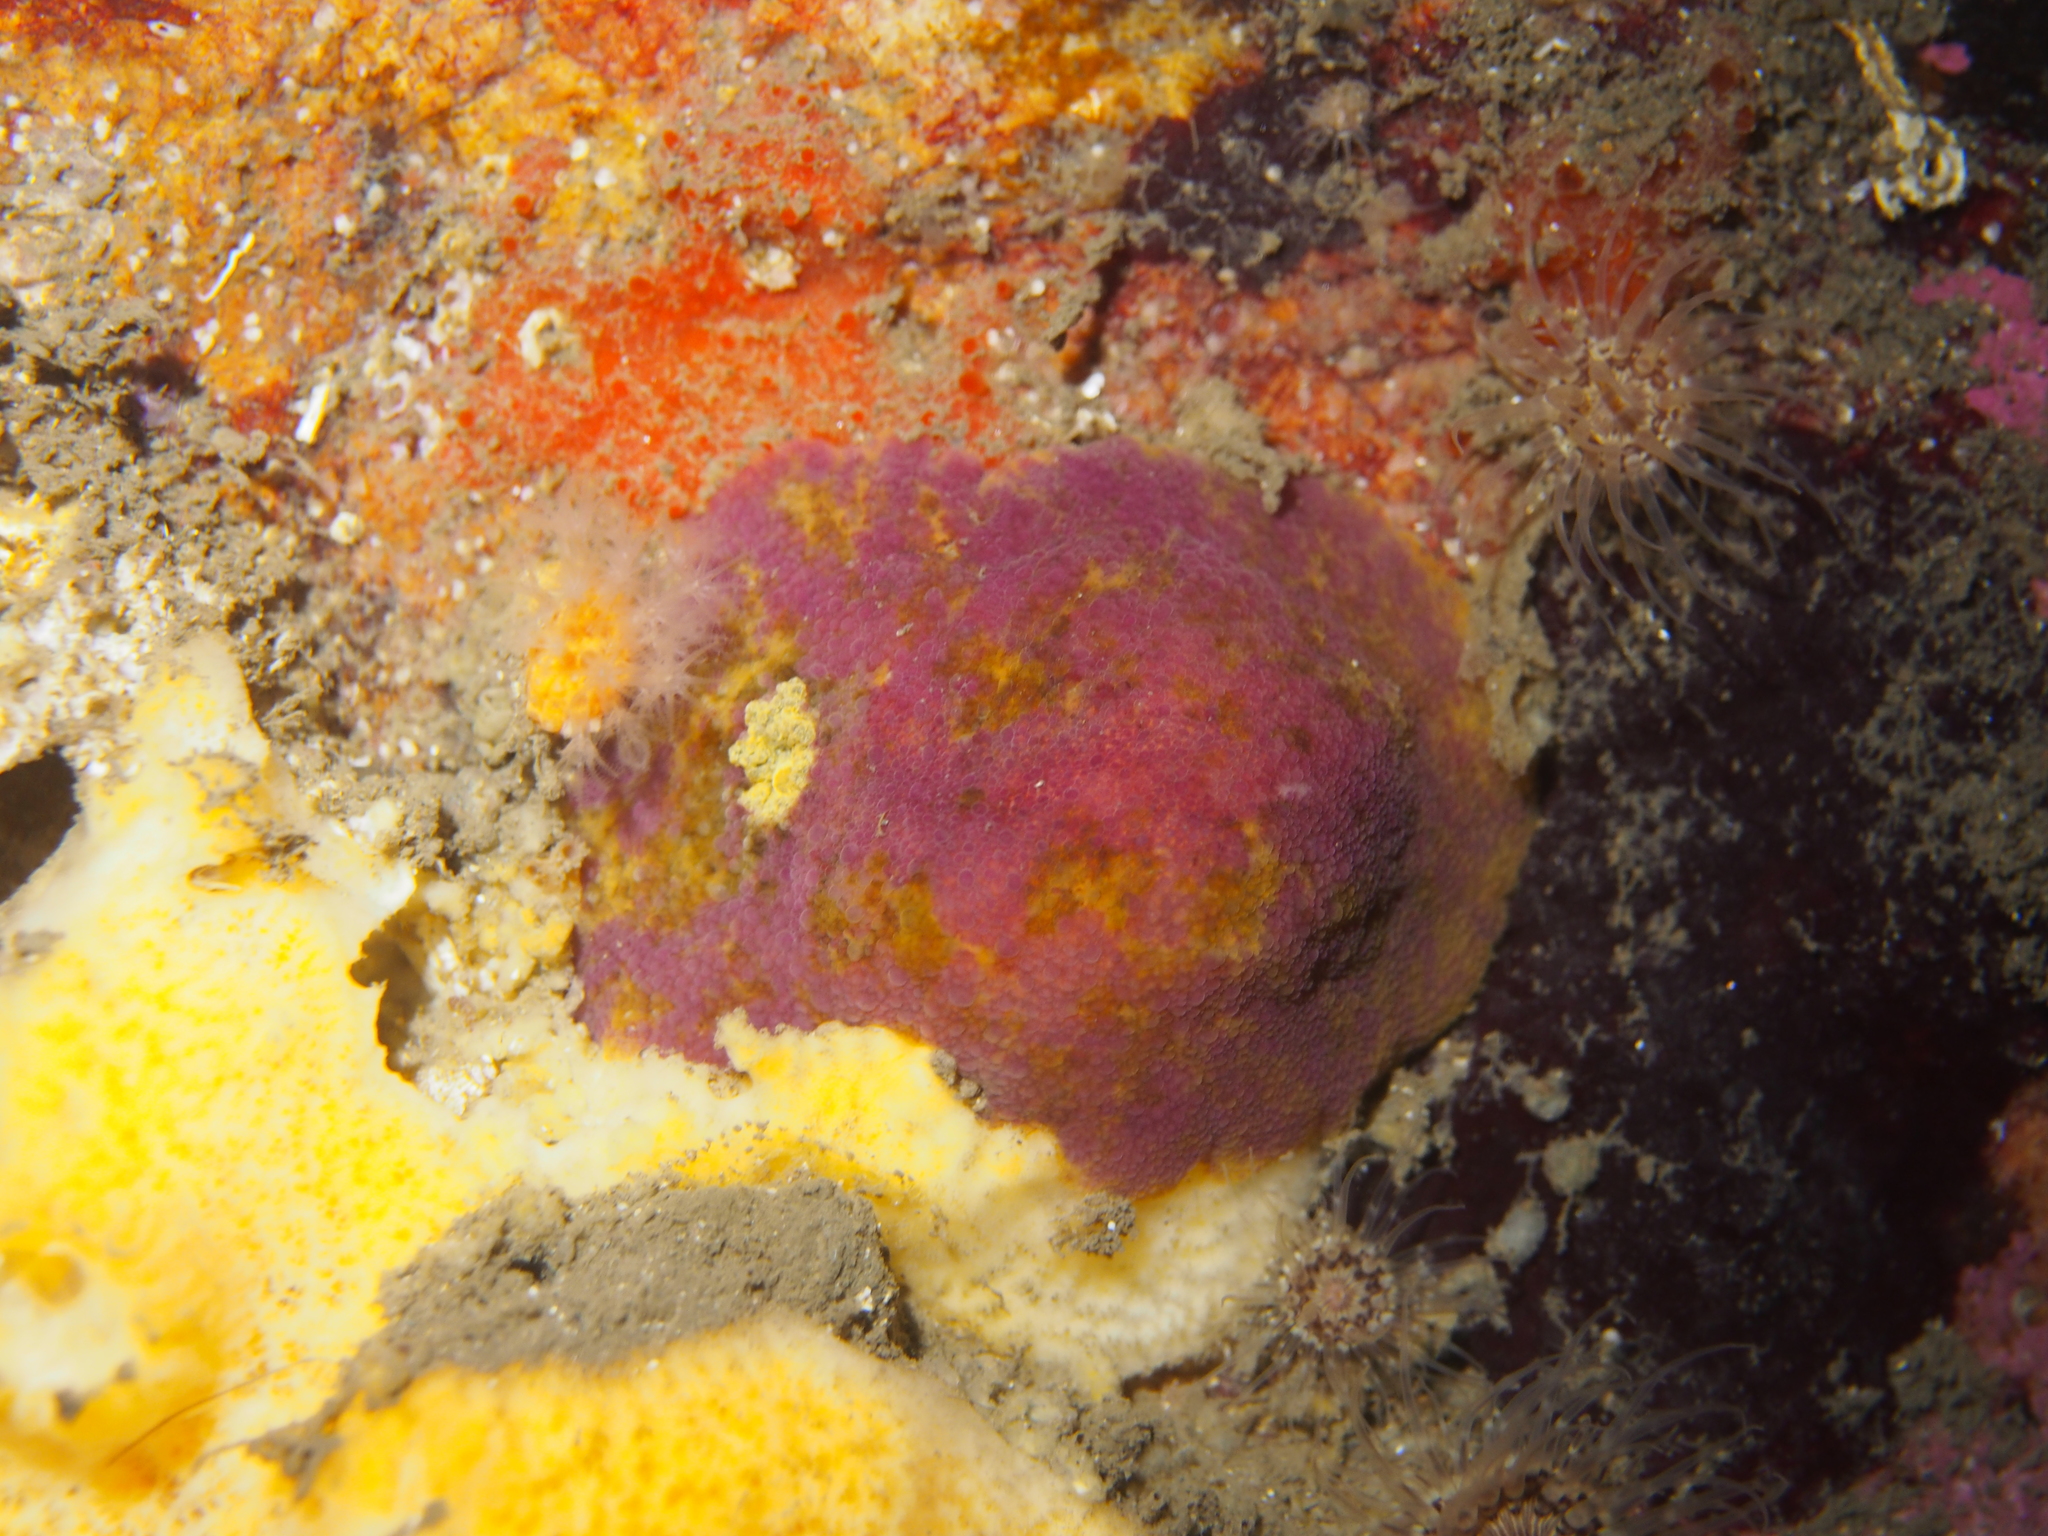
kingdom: Animalia
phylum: Mollusca
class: Gastropoda
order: Nudibranchia
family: Dorididae
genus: Doris
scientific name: Doris pseudoargus
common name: Sea lemon
